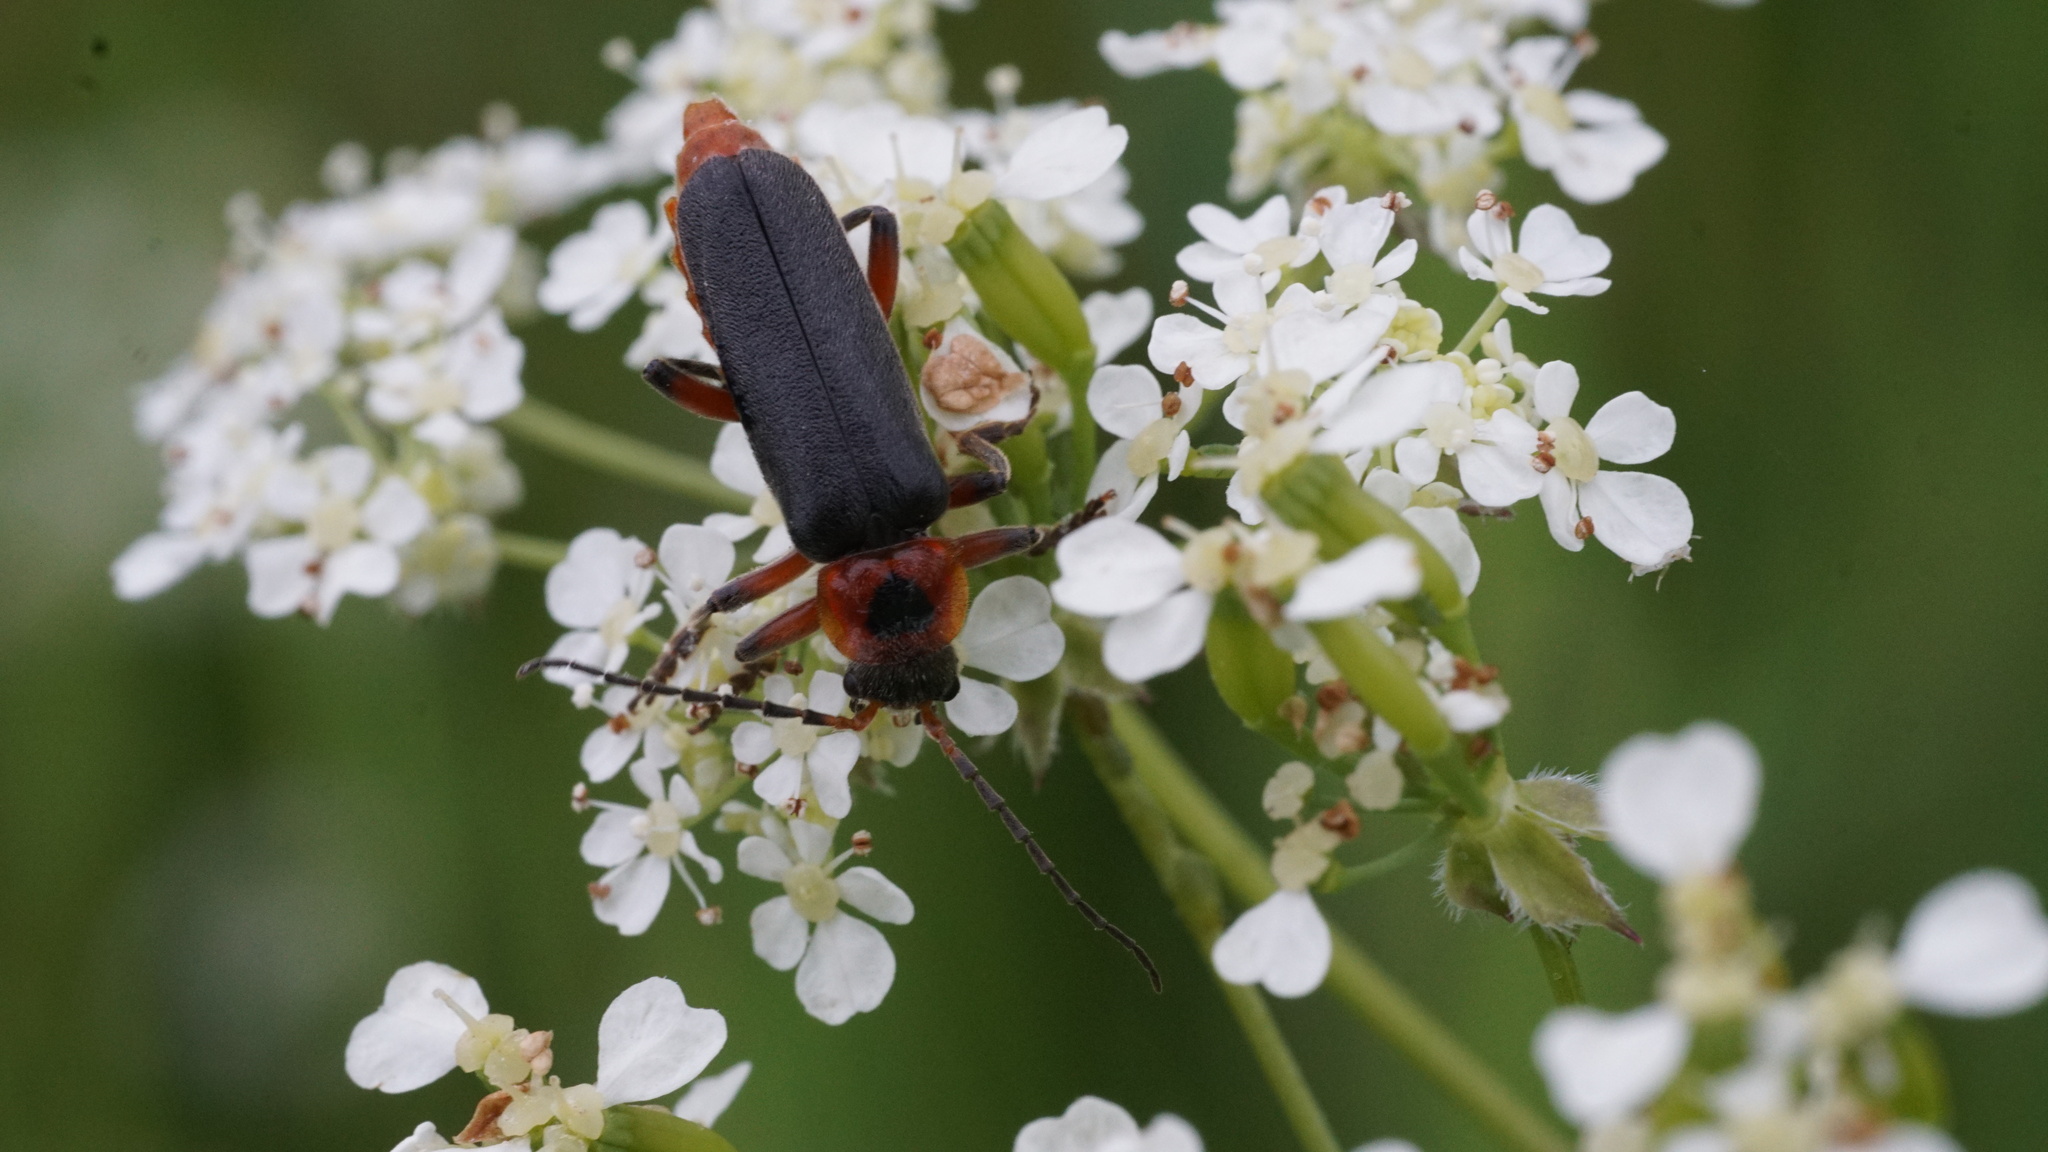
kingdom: Animalia
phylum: Arthropoda
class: Insecta
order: Coleoptera
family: Cantharidae
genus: Cantharis
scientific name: Cantharis rustica
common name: Soldier beetle
